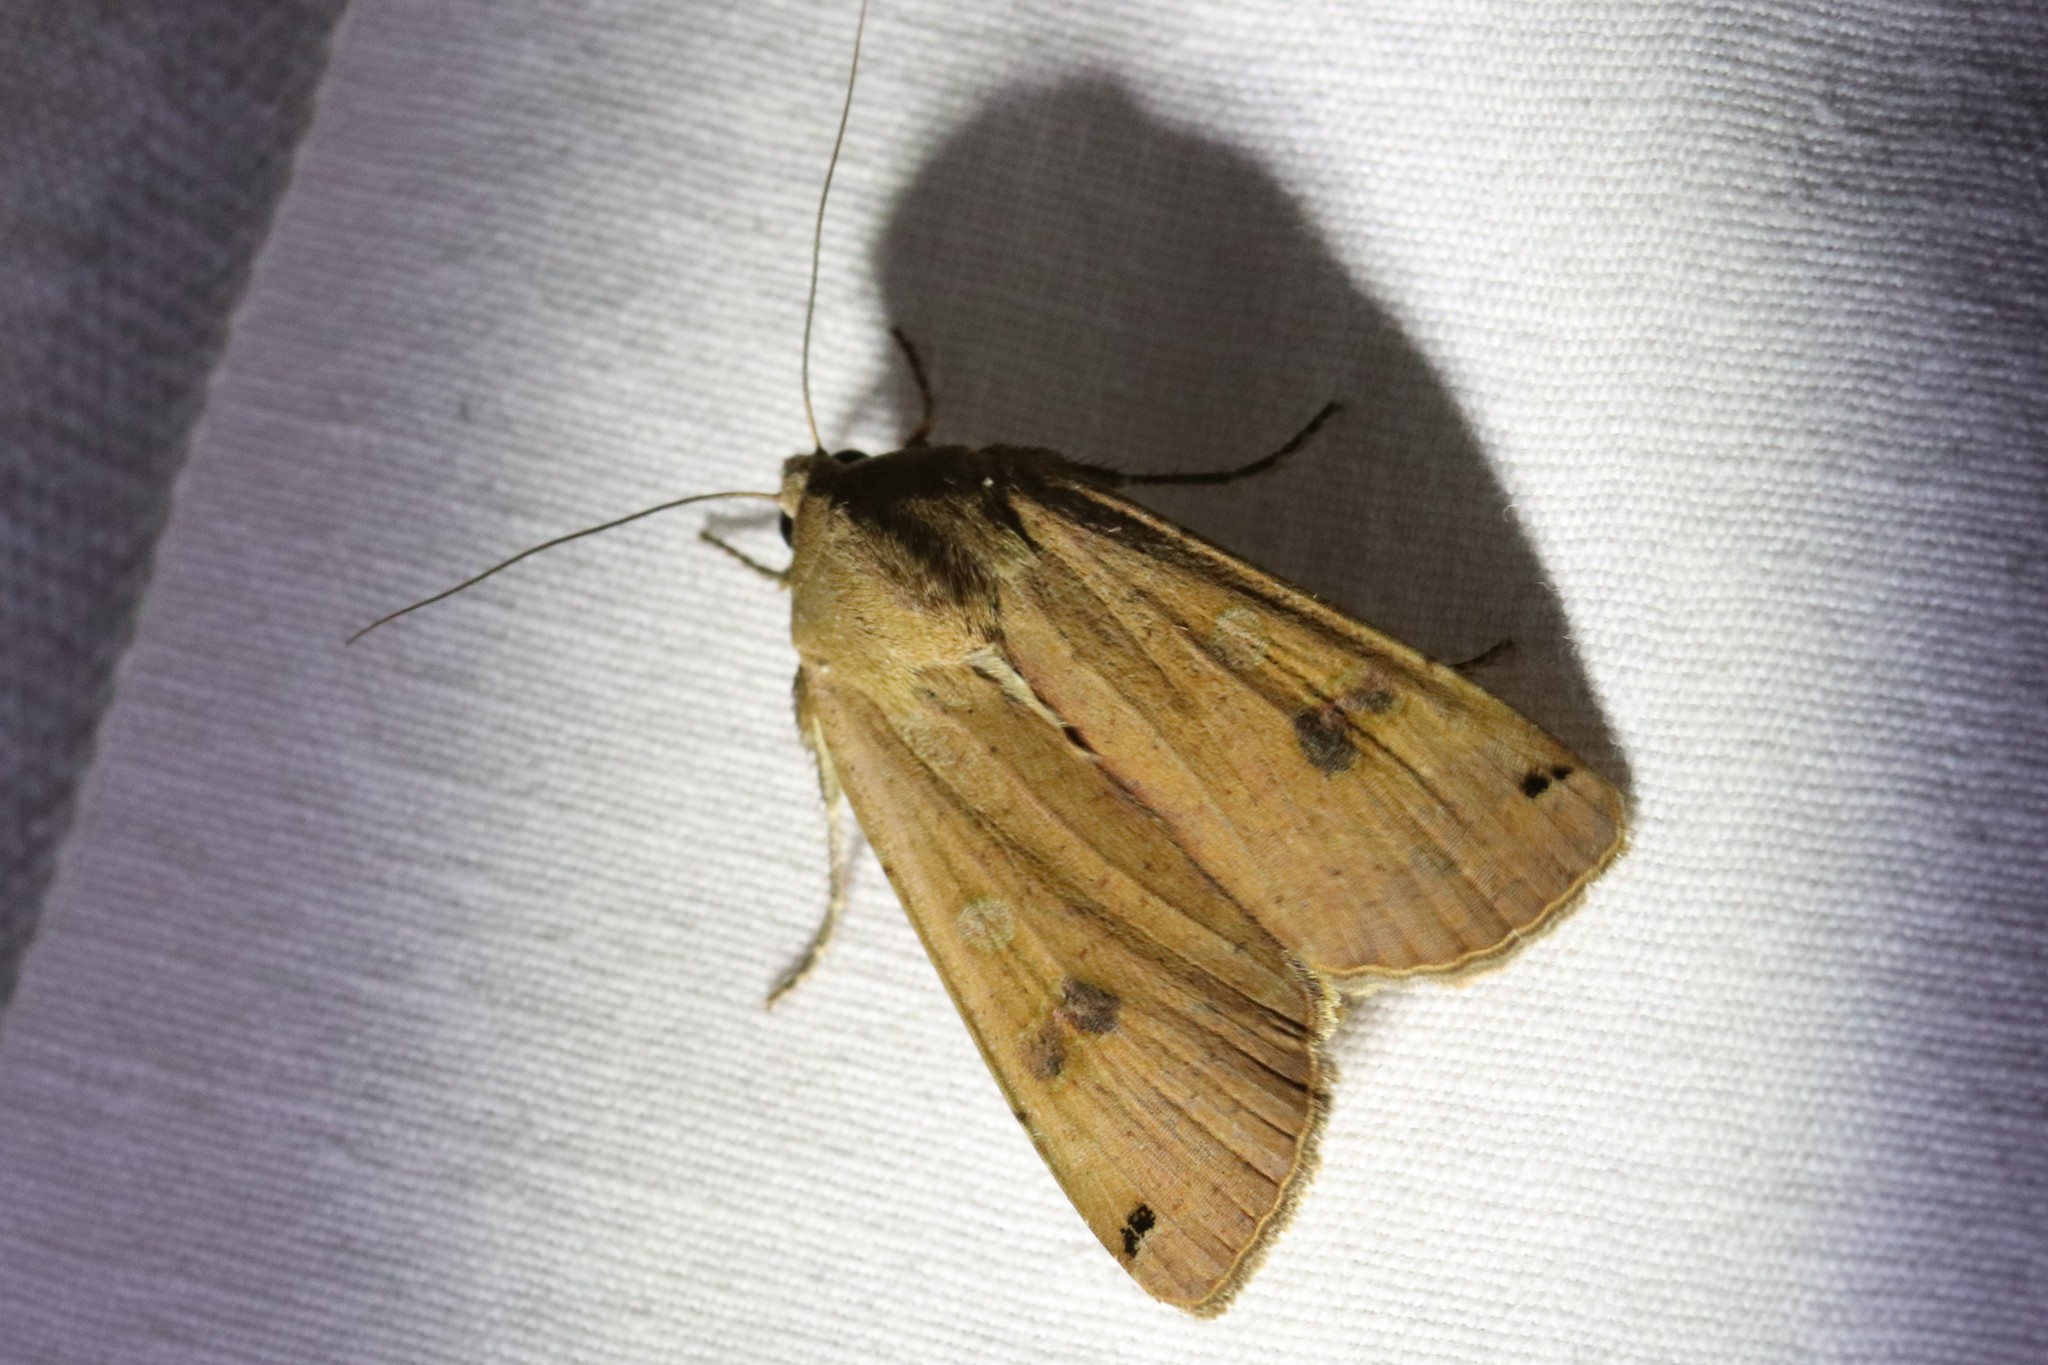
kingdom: Animalia
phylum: Arthropoda
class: Insecta
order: Lepidoptera
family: Noctuidae
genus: Noctua
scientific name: Noctua pronuba
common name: Large yellow underwing
